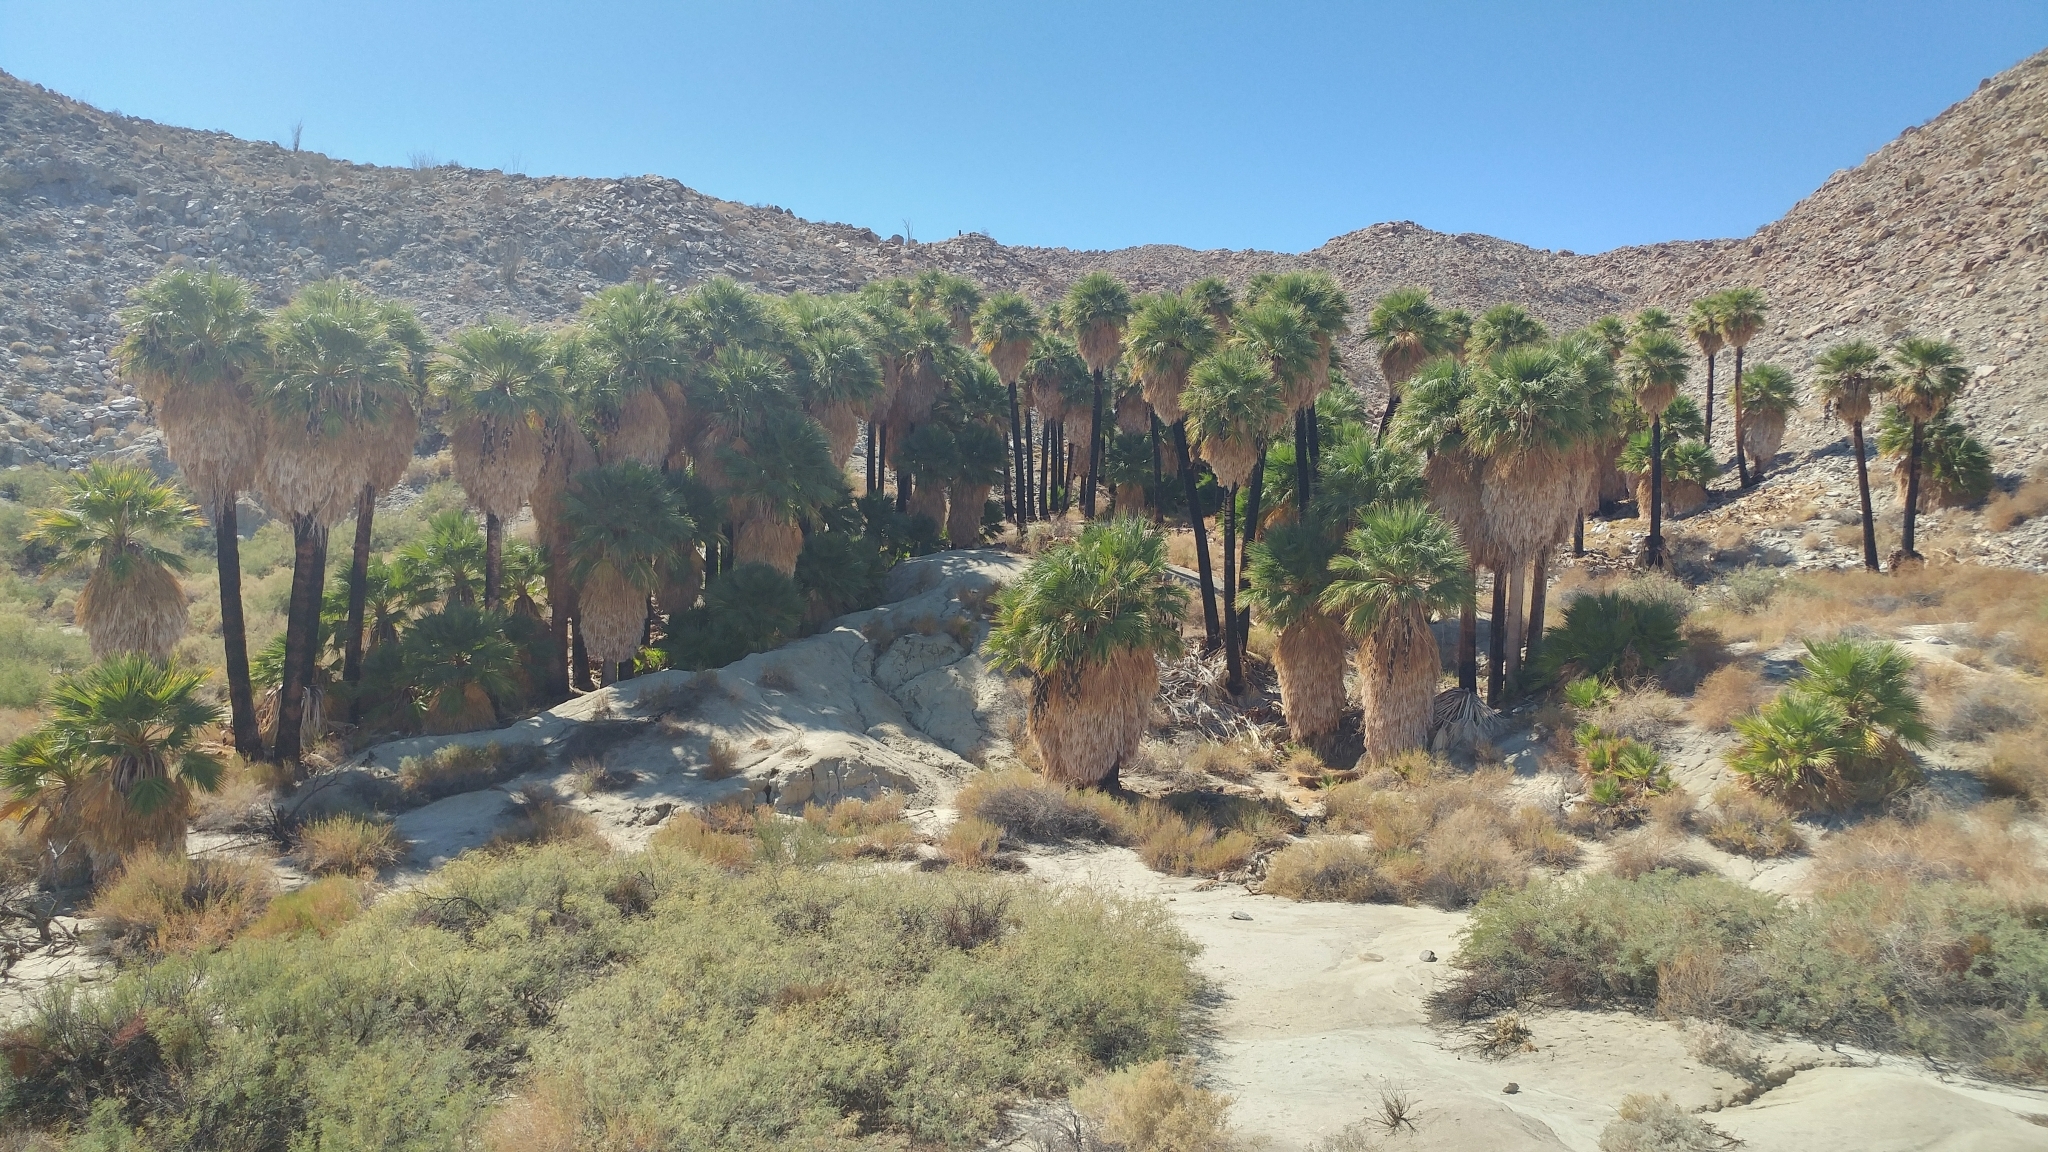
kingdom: Plantae
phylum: Tracheophyta
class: Liliopsida
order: Arecales
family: Arecaceae
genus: Washingtonia
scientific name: Washingtonia filifera
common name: California fan palm
